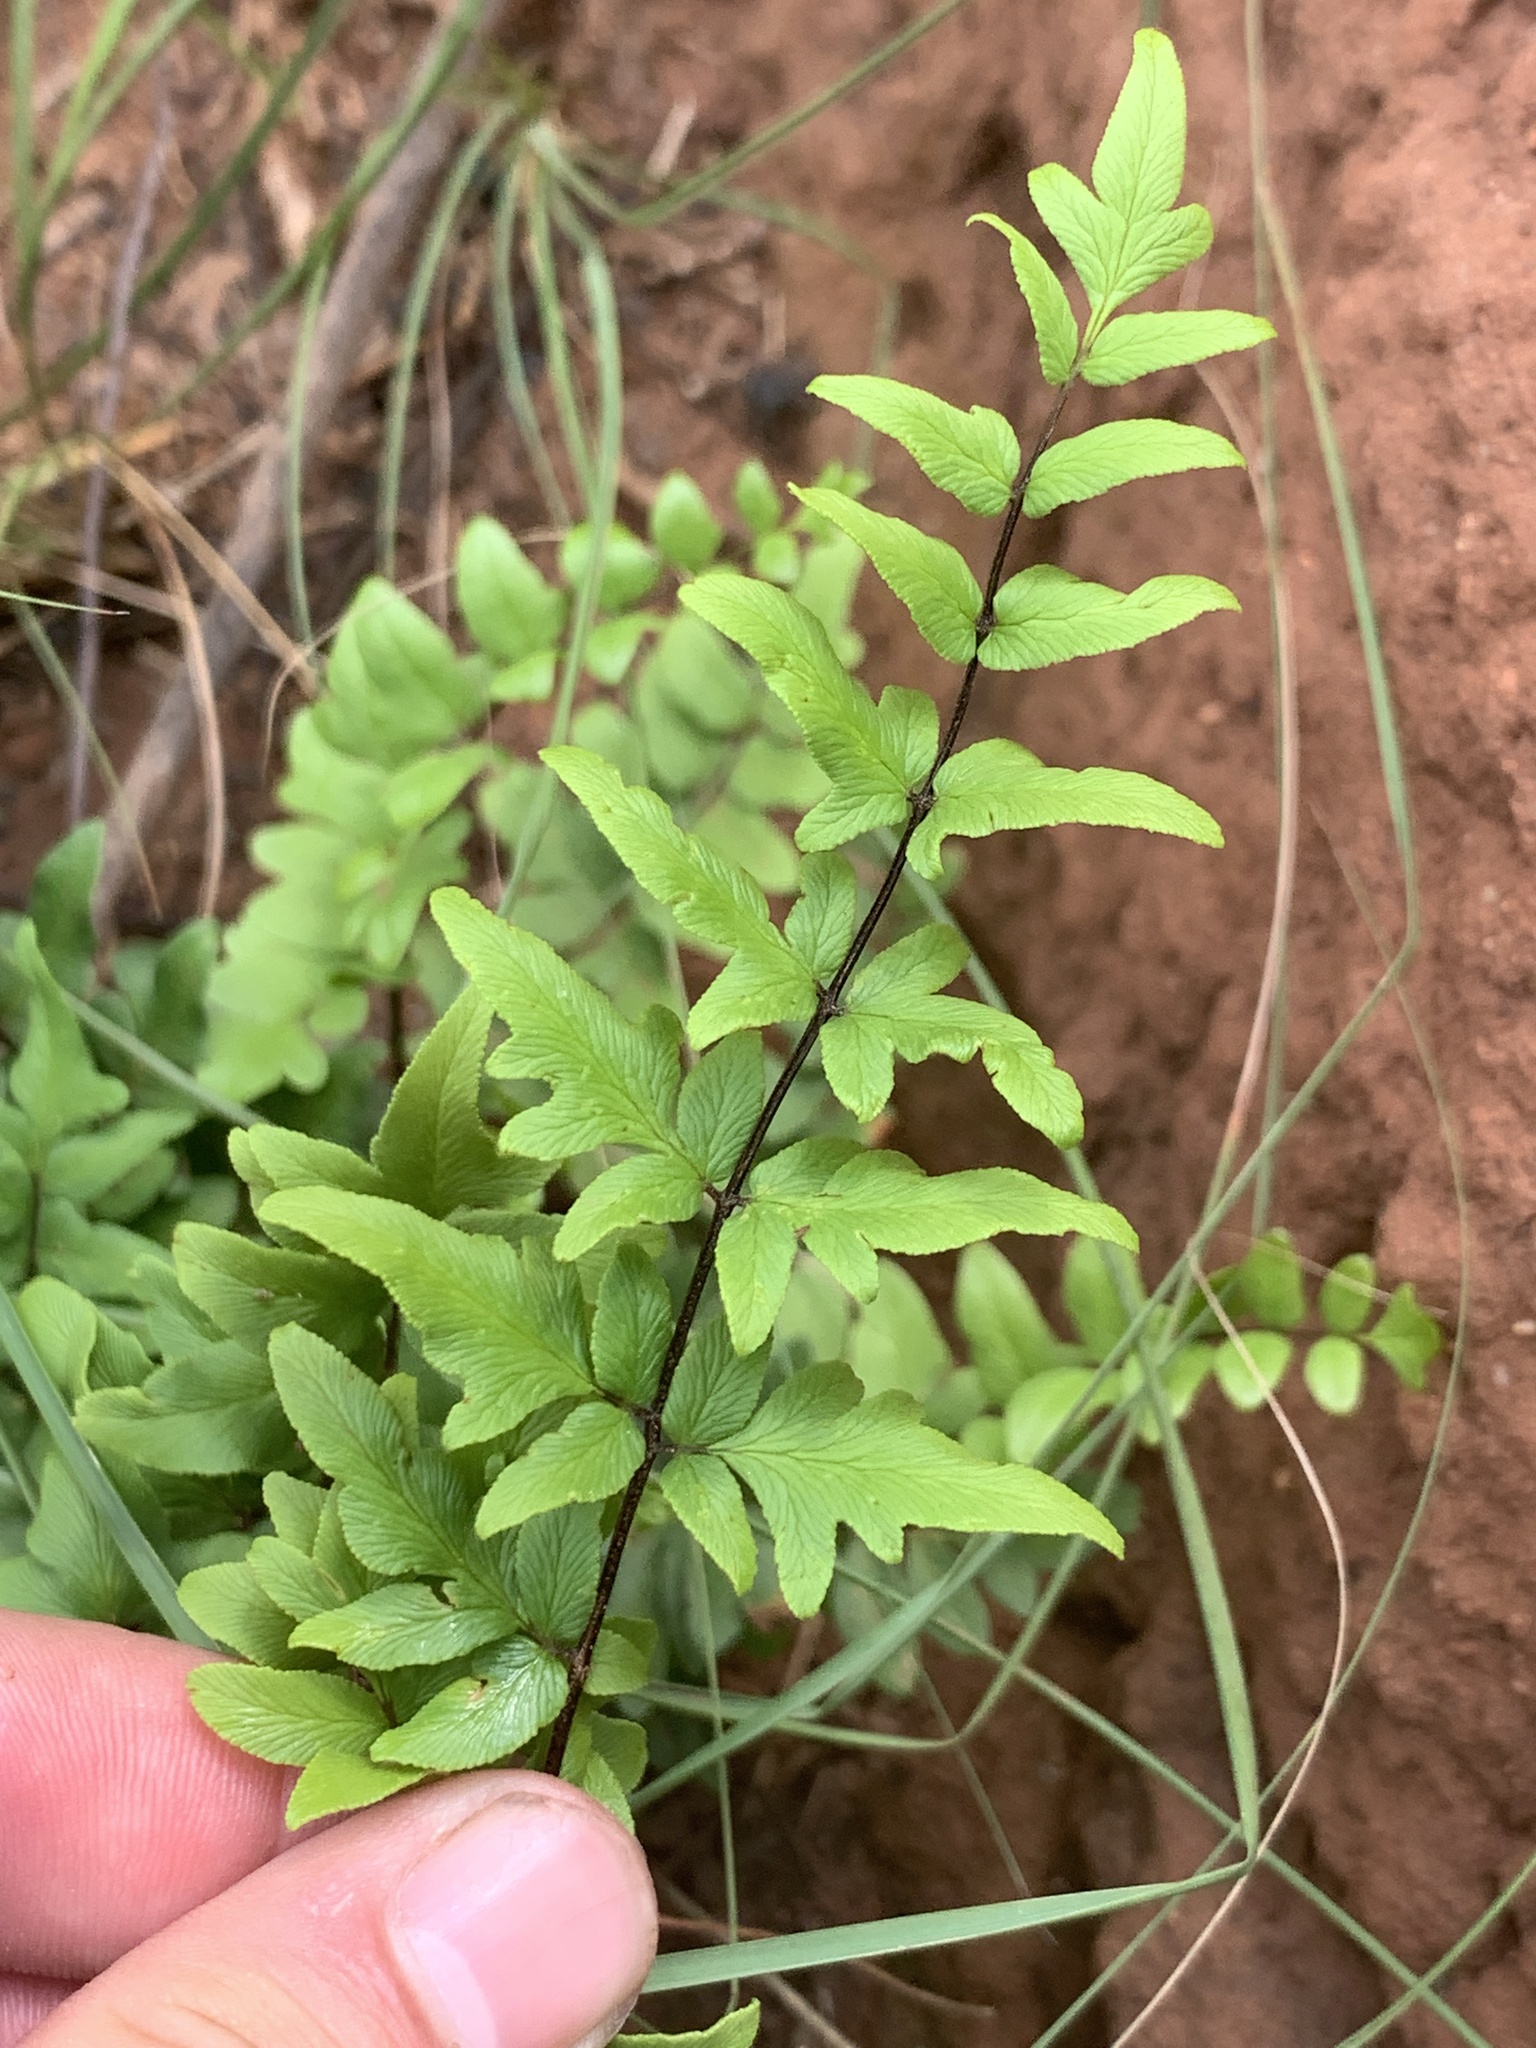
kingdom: Plantae
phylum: Tracheophyta
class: Polypodiopsida
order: Polypodiales
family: Pteridaceae
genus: Cheilanthes
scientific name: Cheilanthes viridis
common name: Green cliffbrake
